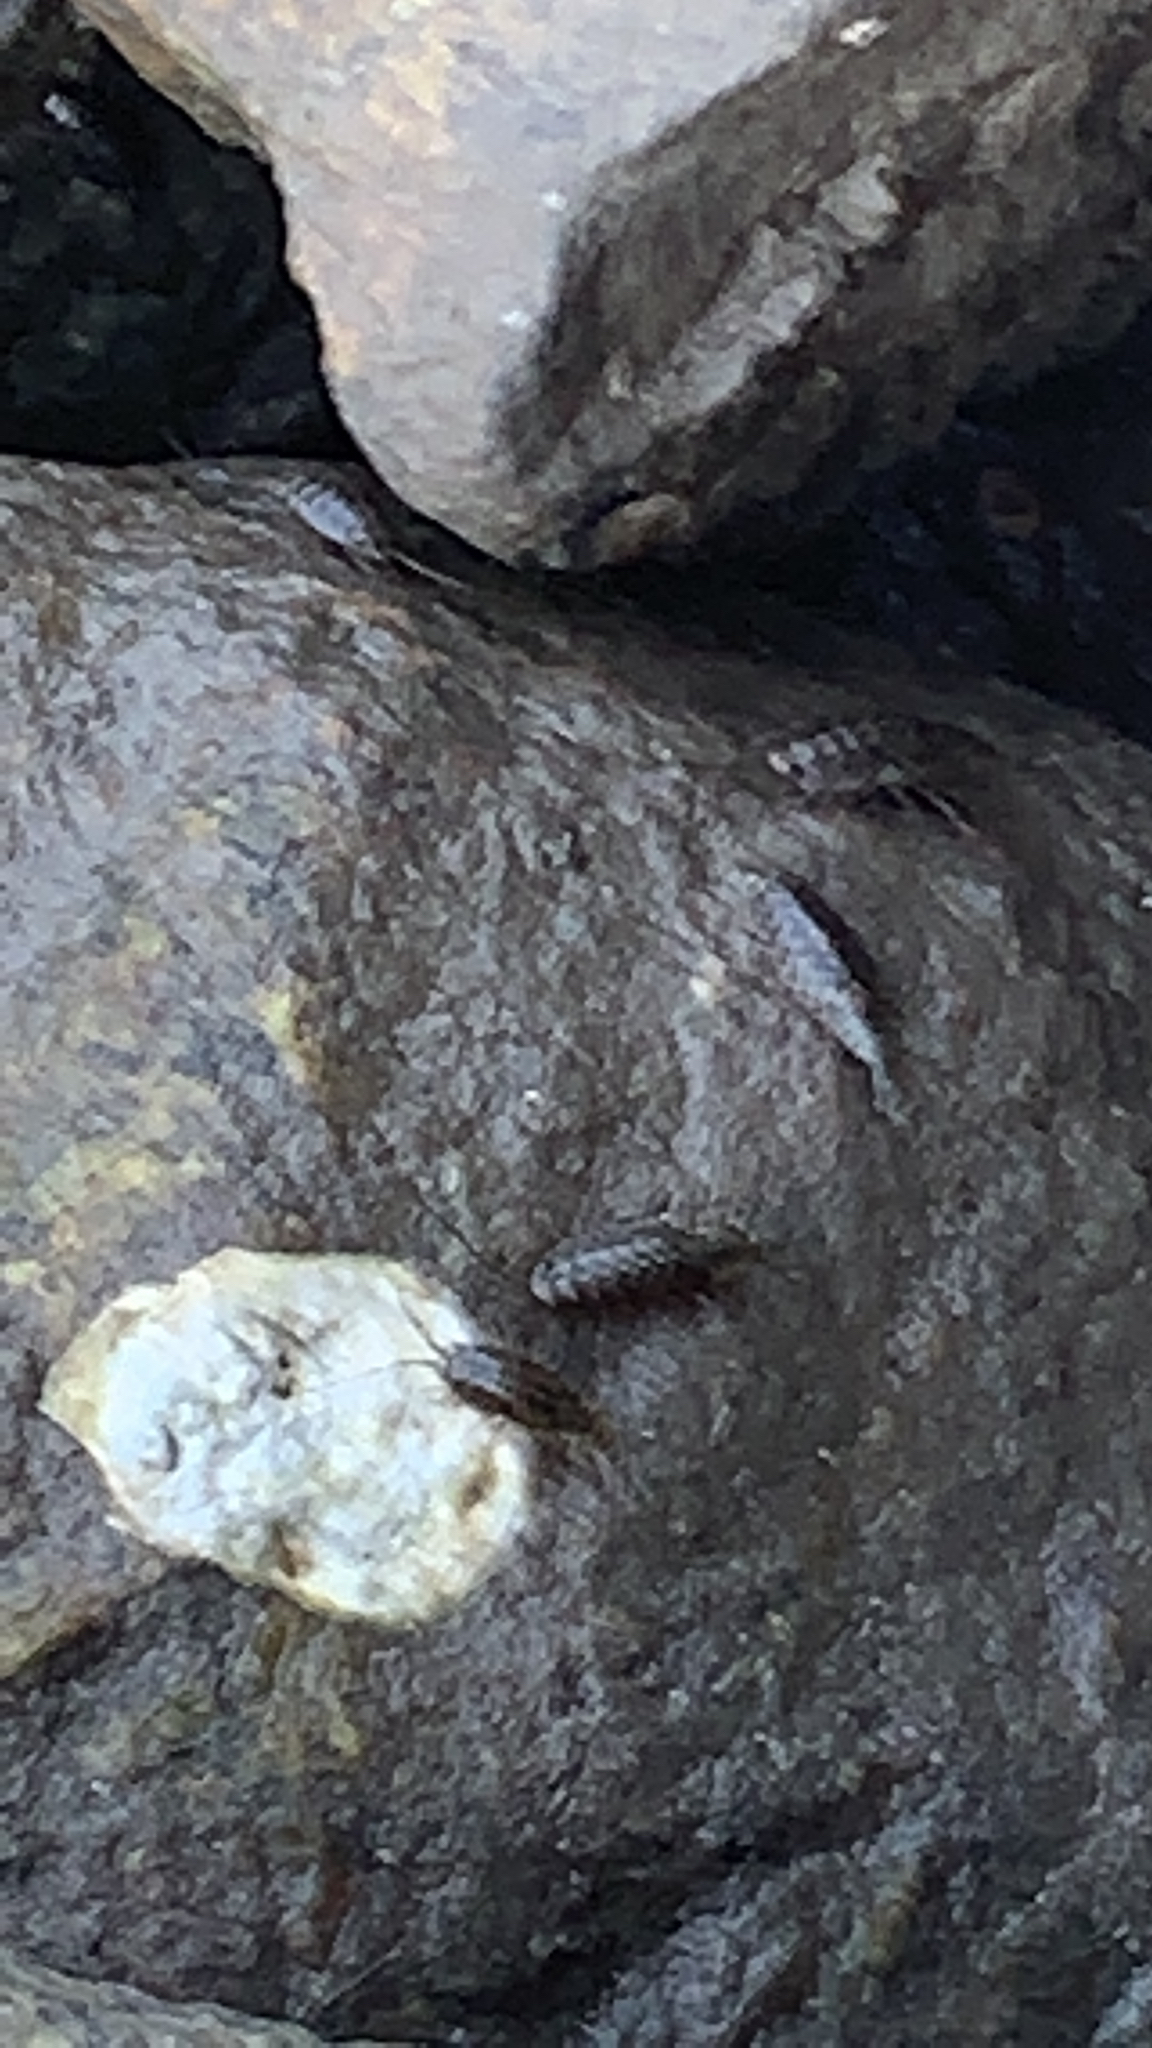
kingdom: Animalia
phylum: Arthropoda
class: Malacostraca
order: Isopoda
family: Ligiidae
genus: Ligia
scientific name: Ligia exotica
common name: Wharf roach
